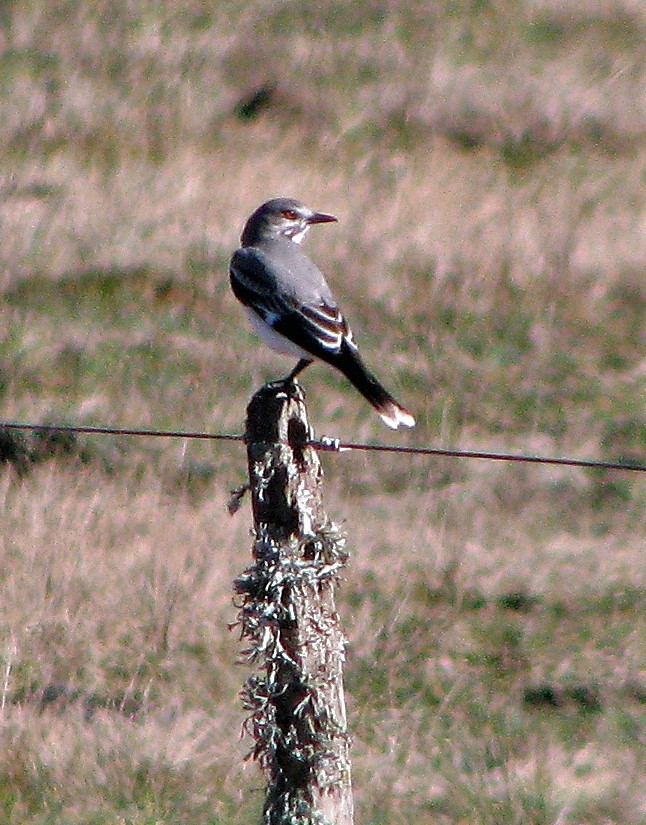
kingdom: Animalia
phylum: Chordata
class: Aves
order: Passeriformes
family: Tyrannidae
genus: Xolmis
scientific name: Xolmis cinereus
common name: Grey monjita
